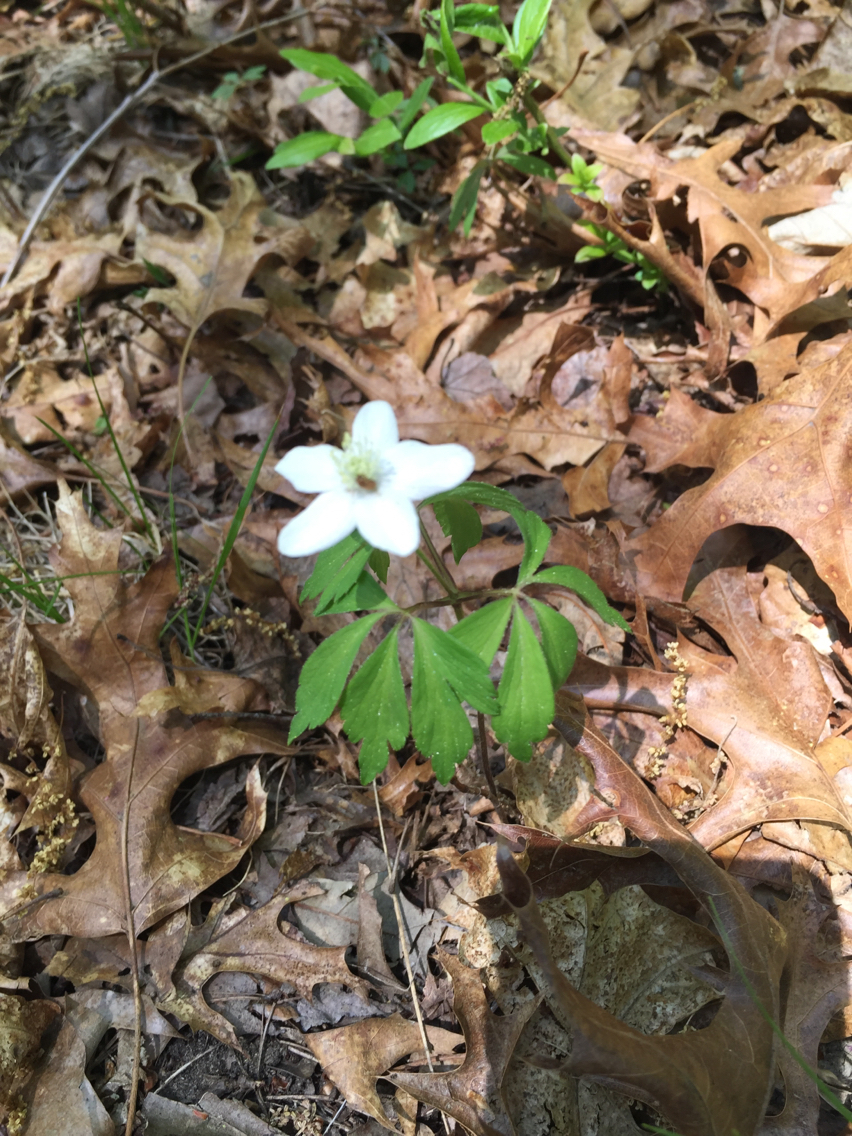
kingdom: Plantae
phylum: Tracheophyta
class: Magnoliopsida
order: Ranunculales
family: Ranunculaceae
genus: Anemone
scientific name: Anemone quinquefolia
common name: Wood anemone
